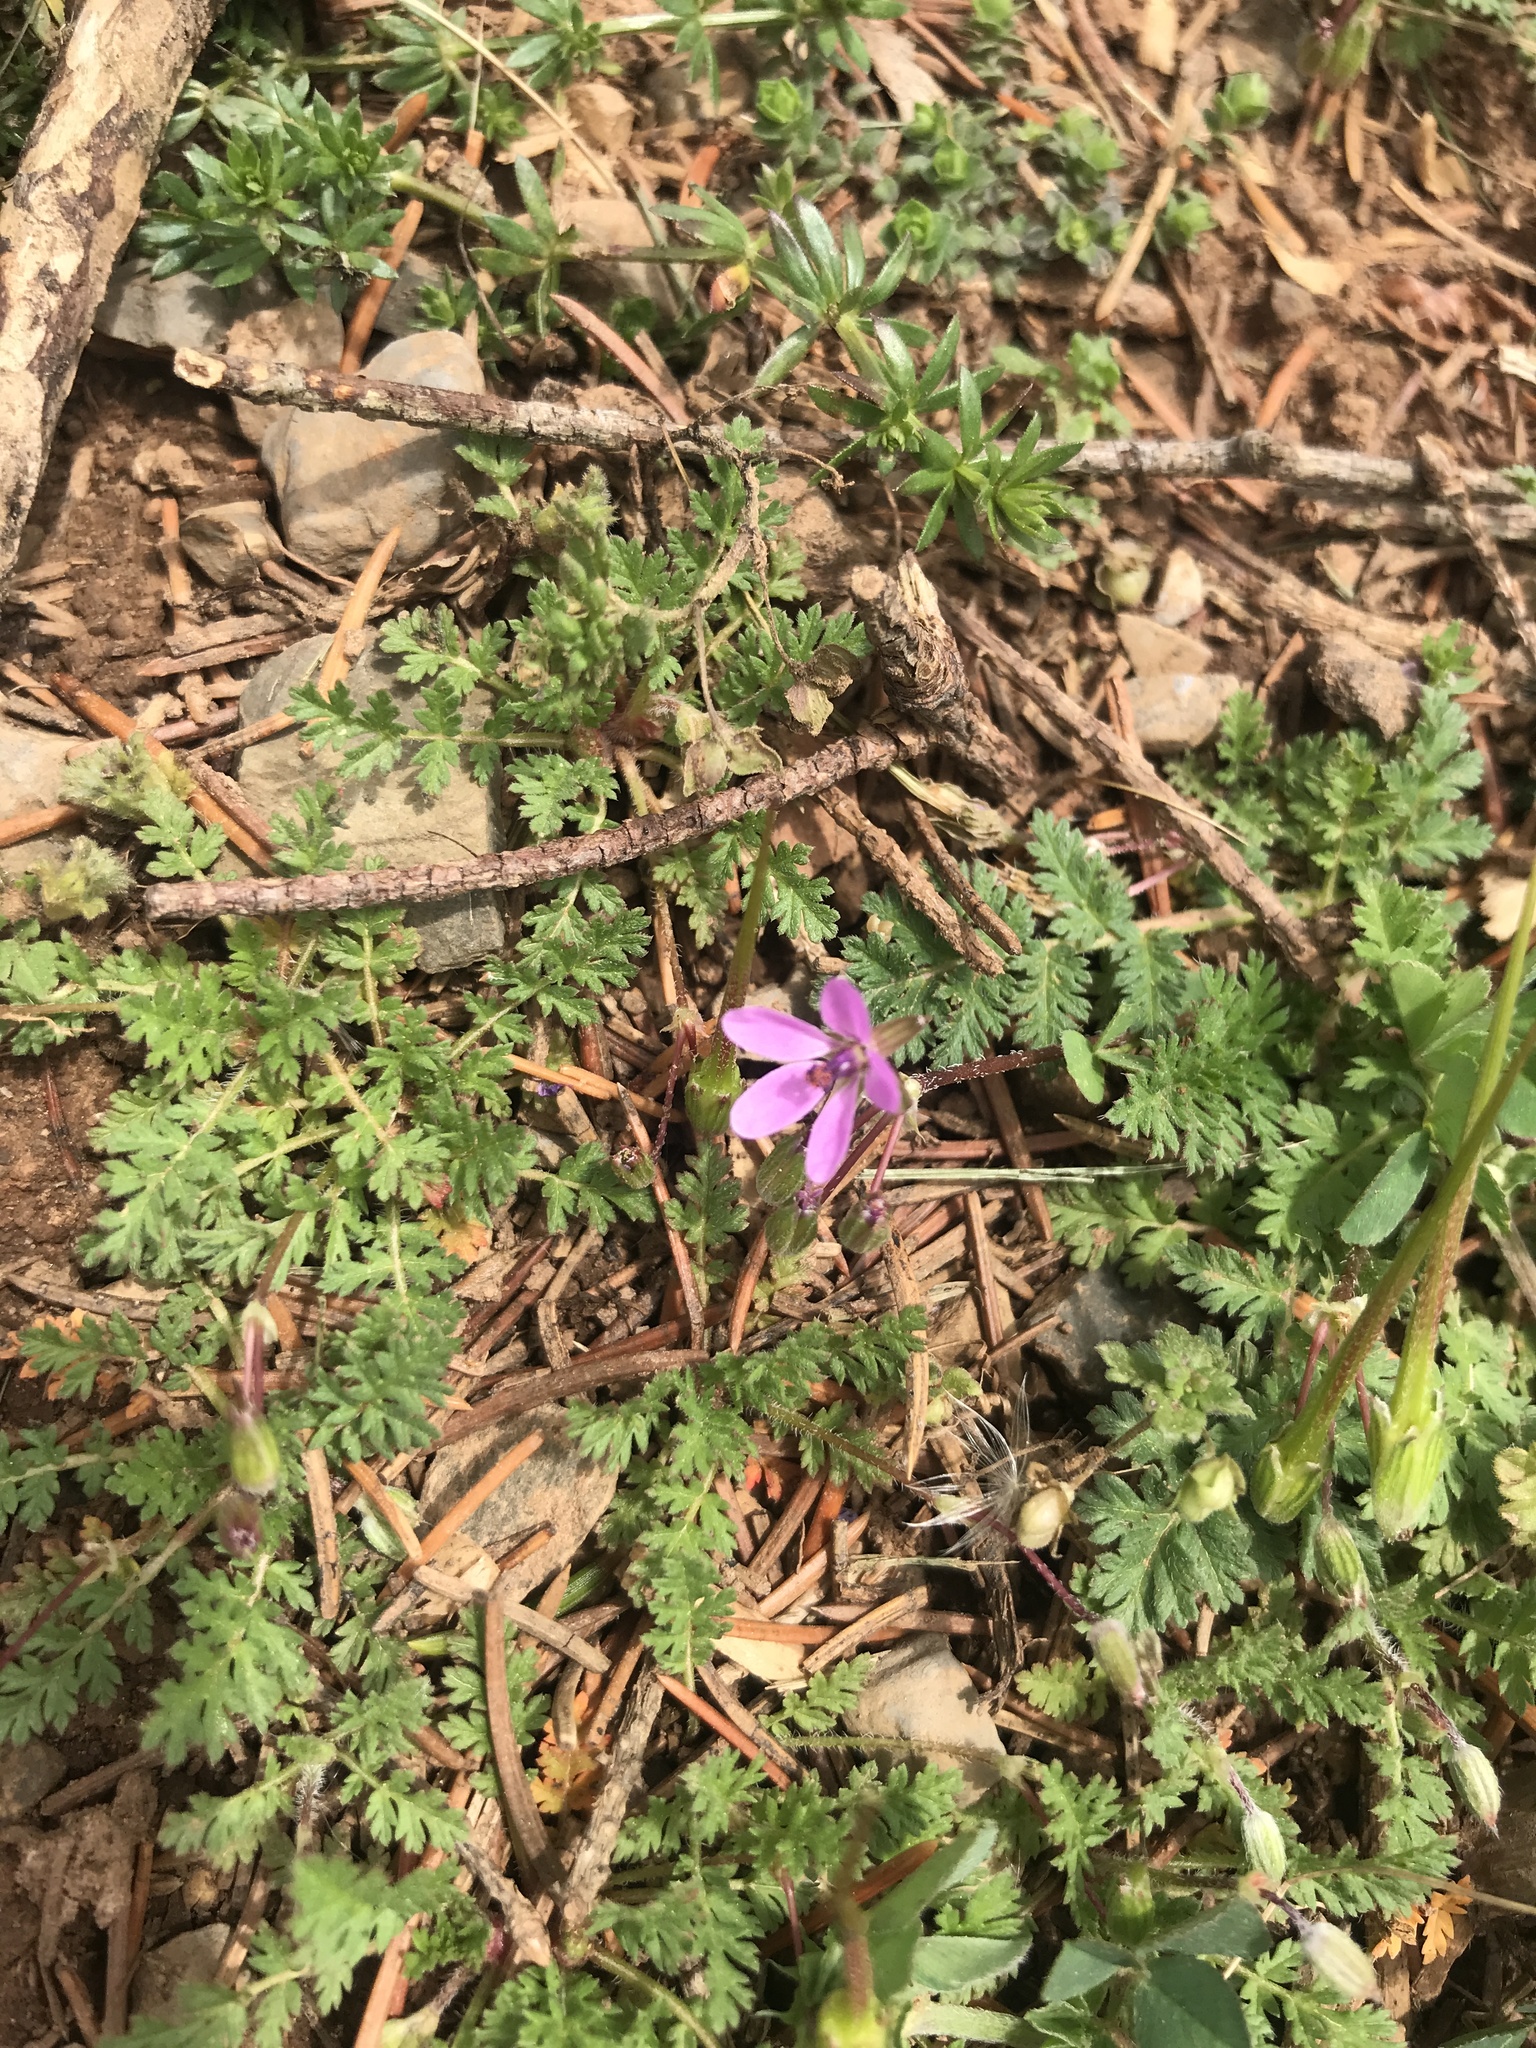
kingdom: Plantae
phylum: Tracheophyta
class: Magnoliopsida
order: Geraniales
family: Geraniaceae
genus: Erodium
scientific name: Erodium cicutarium
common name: Common stork's-bill
